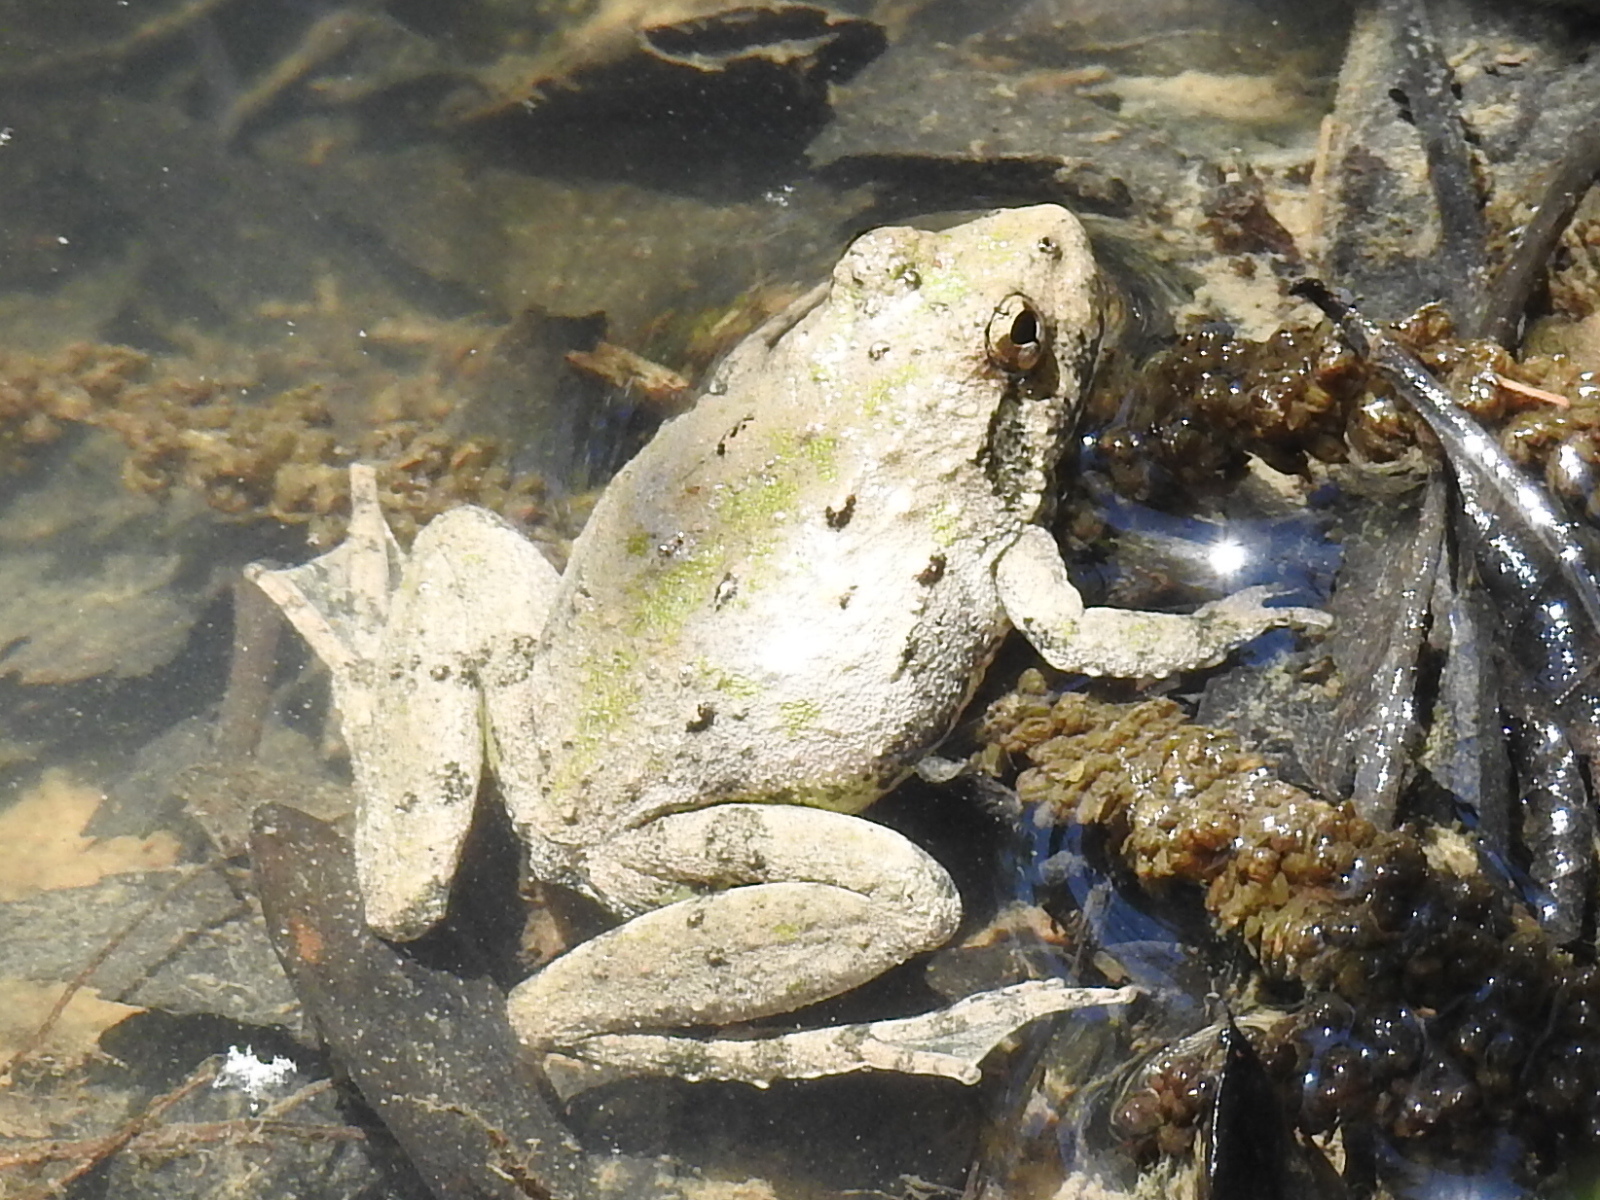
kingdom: Animalia
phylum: Chordata
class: Amphibia
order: Anura
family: Hylidae
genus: Acris
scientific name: Acris blanchardi
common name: Blanchard's cricket frog
